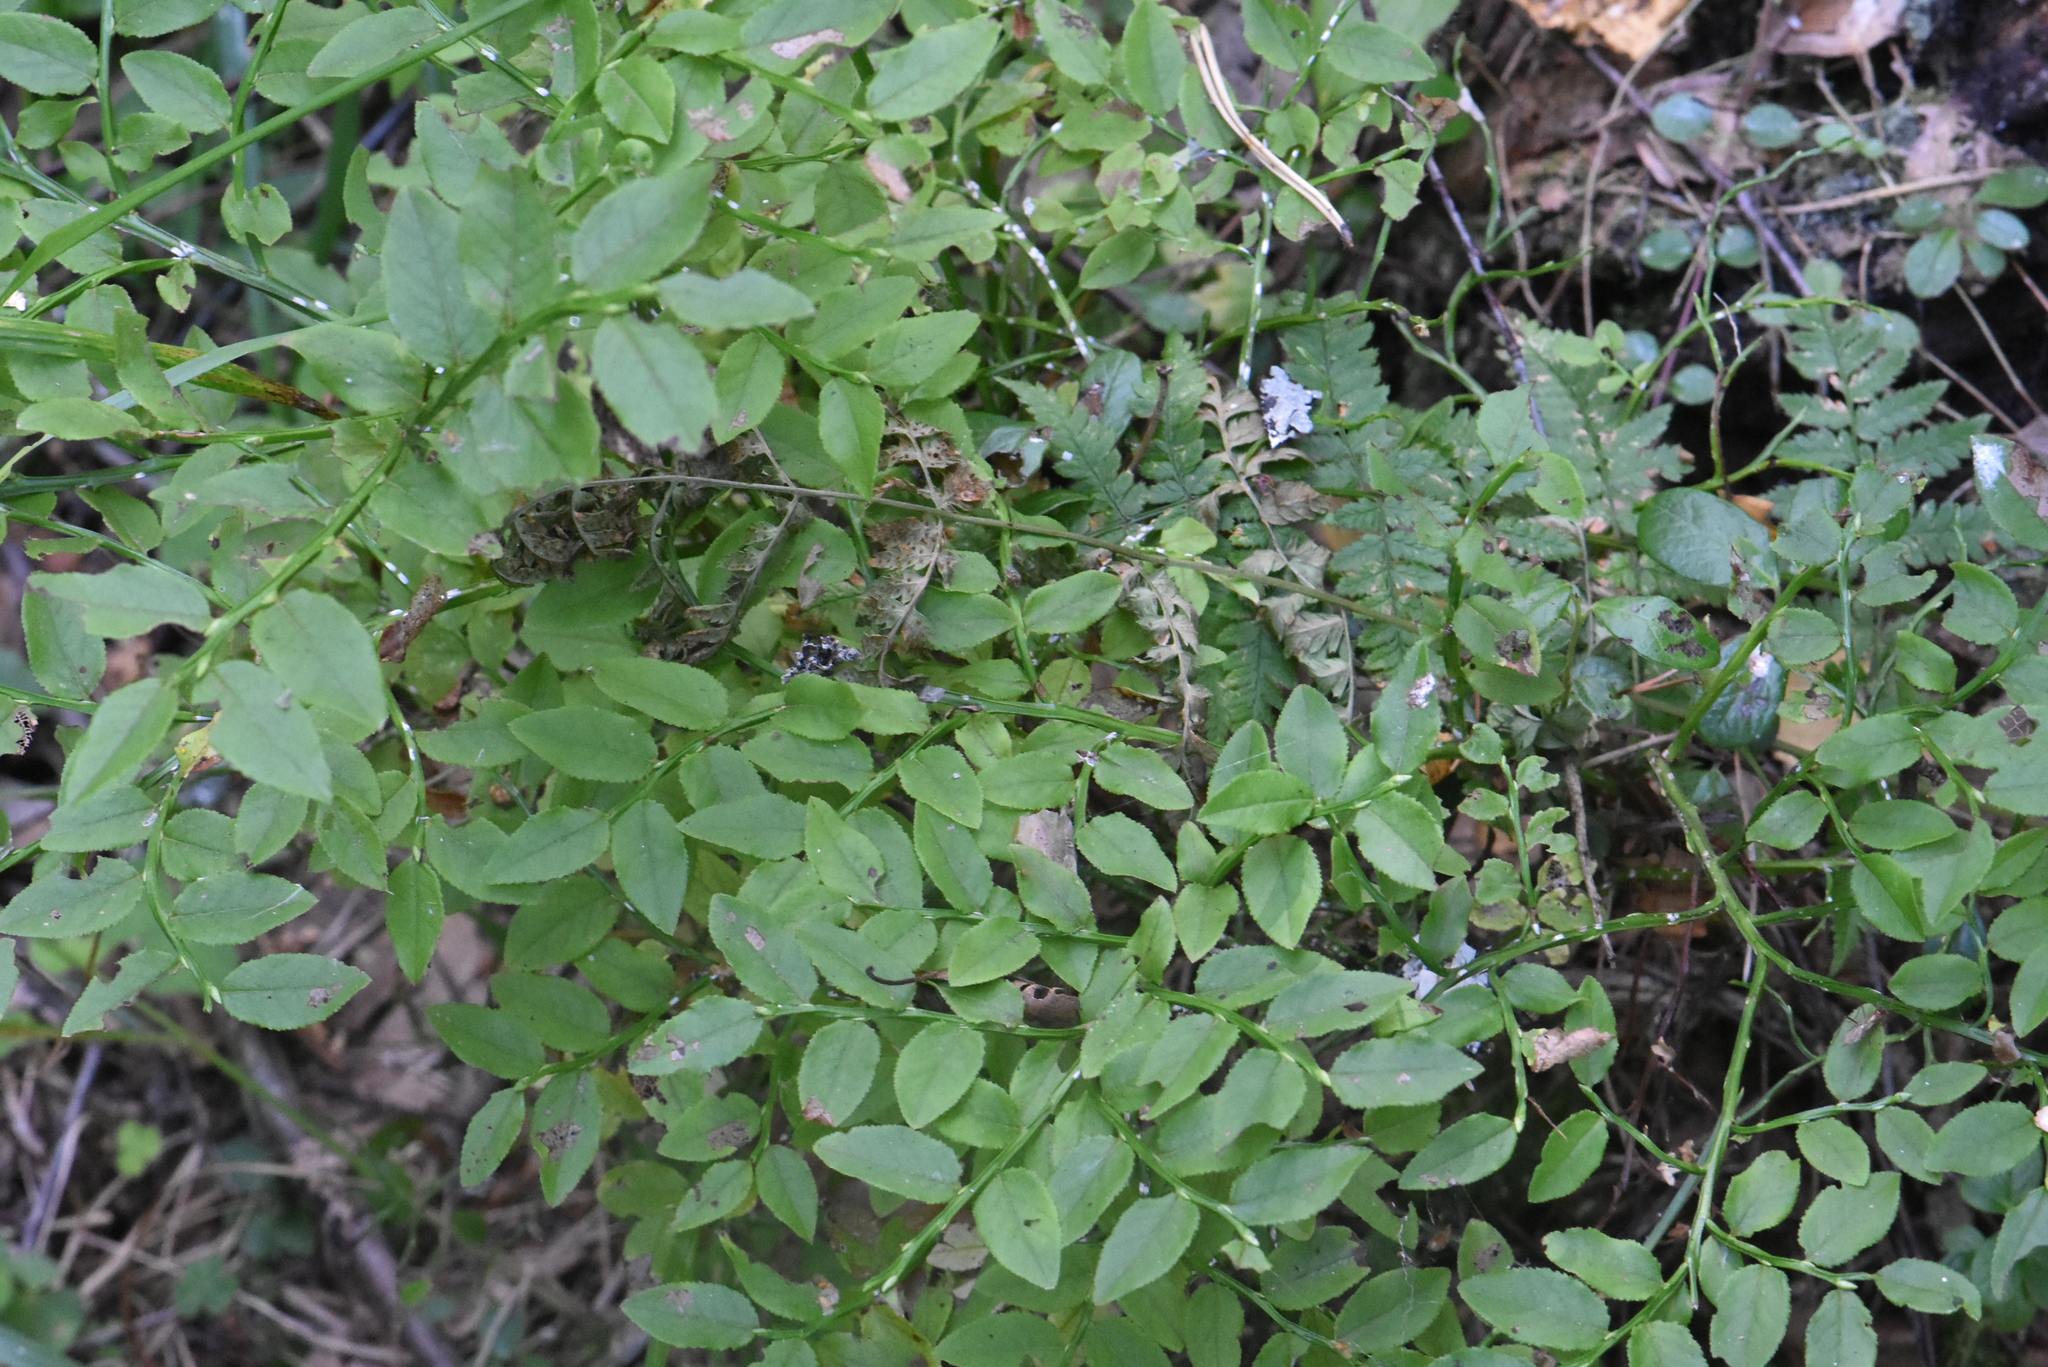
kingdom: Plantae
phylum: Tracheophyta
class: Magnoliopsida
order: Ericales
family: Ericaceae
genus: Vaccinium
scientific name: Vaccinium myrtillus
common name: Bilberry
